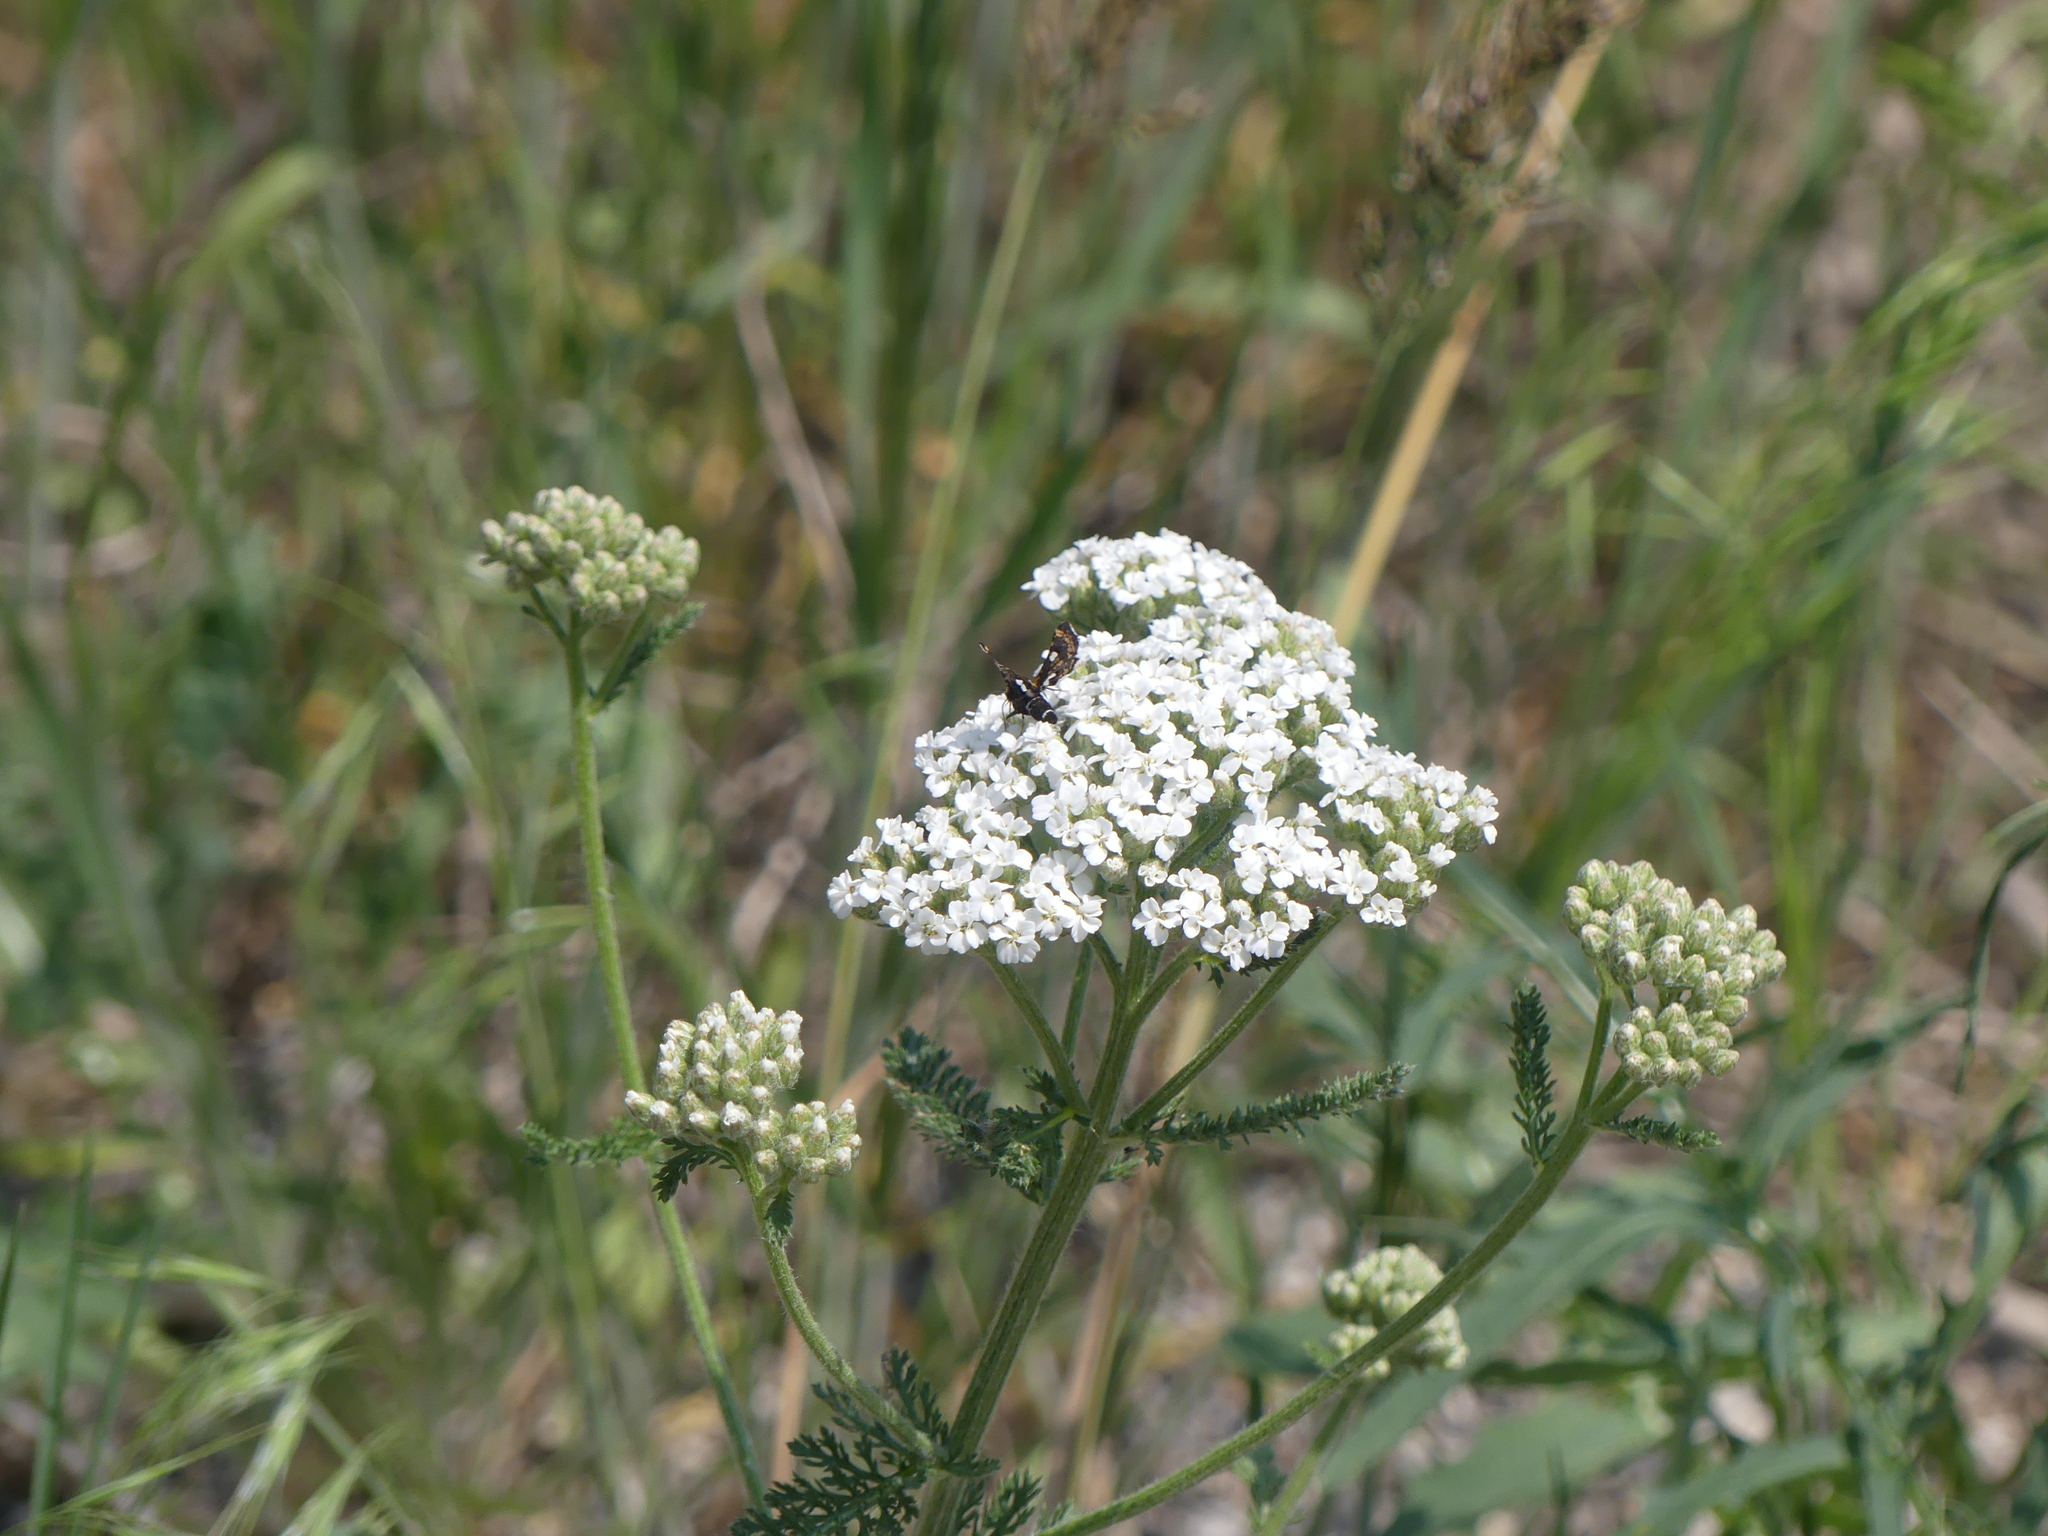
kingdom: Animalia
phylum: Arthropoda
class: Insecta
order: Lepidoptera
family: Thyrididae
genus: Thyris
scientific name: Thyris maculata
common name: Spotted thyris moth
